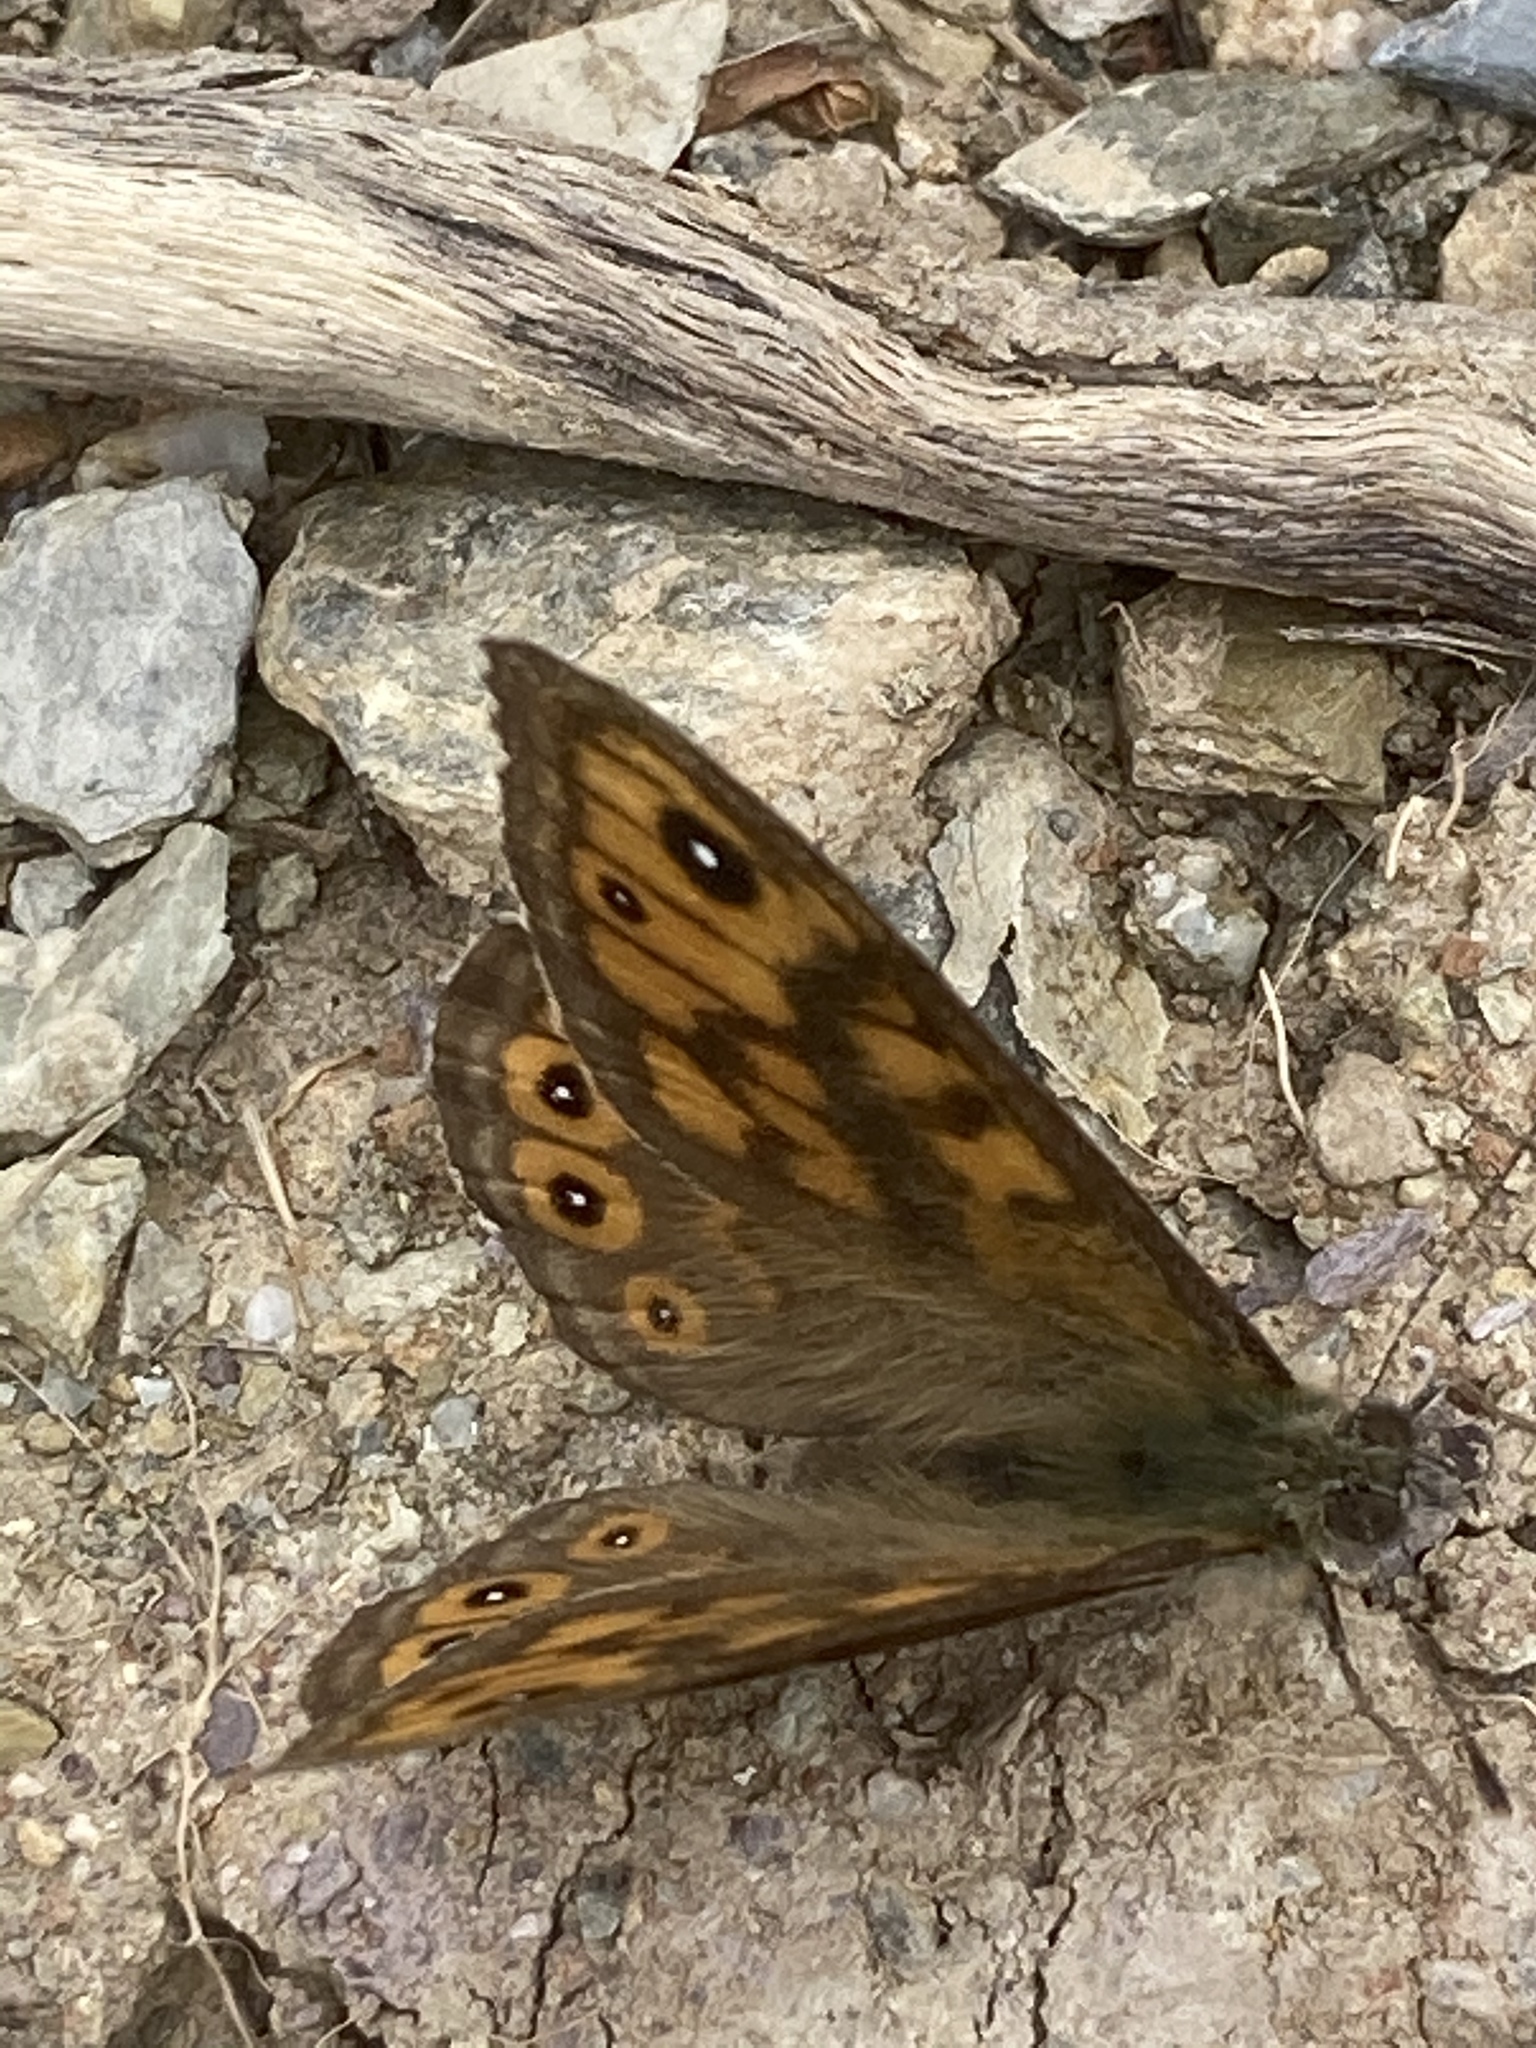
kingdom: Animalia
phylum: Arthropoda
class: Insecta
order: Lepidoptera
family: Nymphalidae
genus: Pararge
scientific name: Pararge Lasiommata megera
